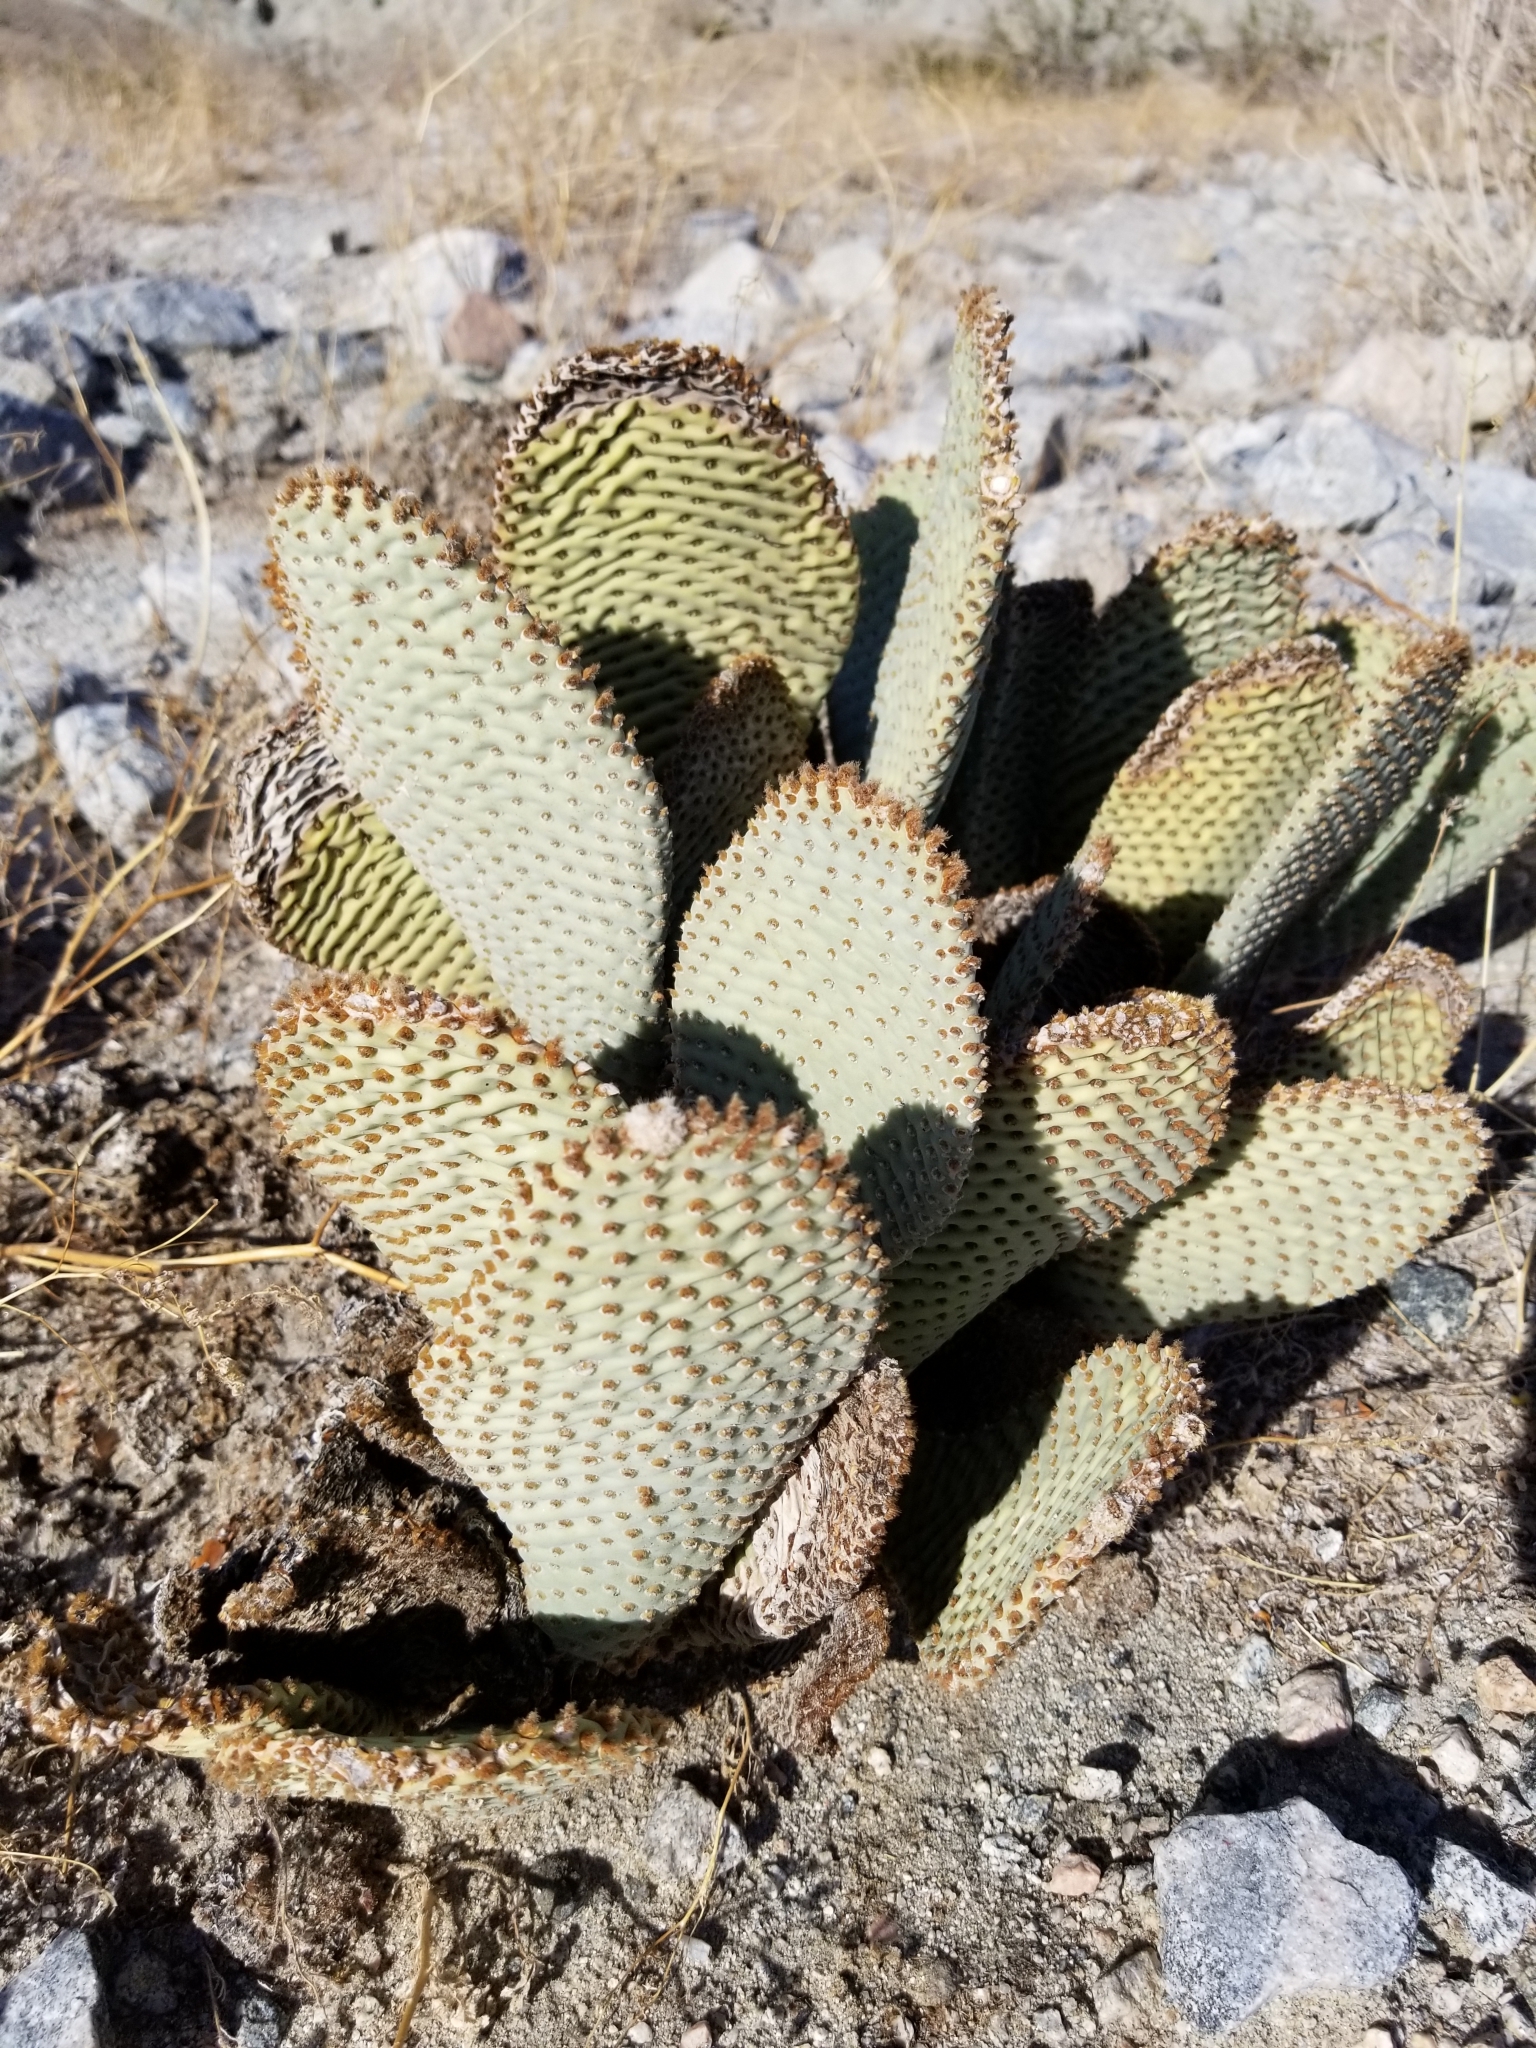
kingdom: Plantae
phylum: Tracheophyta
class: Magnoliopsida
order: Caryophyllales
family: Cactaceae
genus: Opuntia
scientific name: Opuntia basilaris
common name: Beavertail prickly-pear
